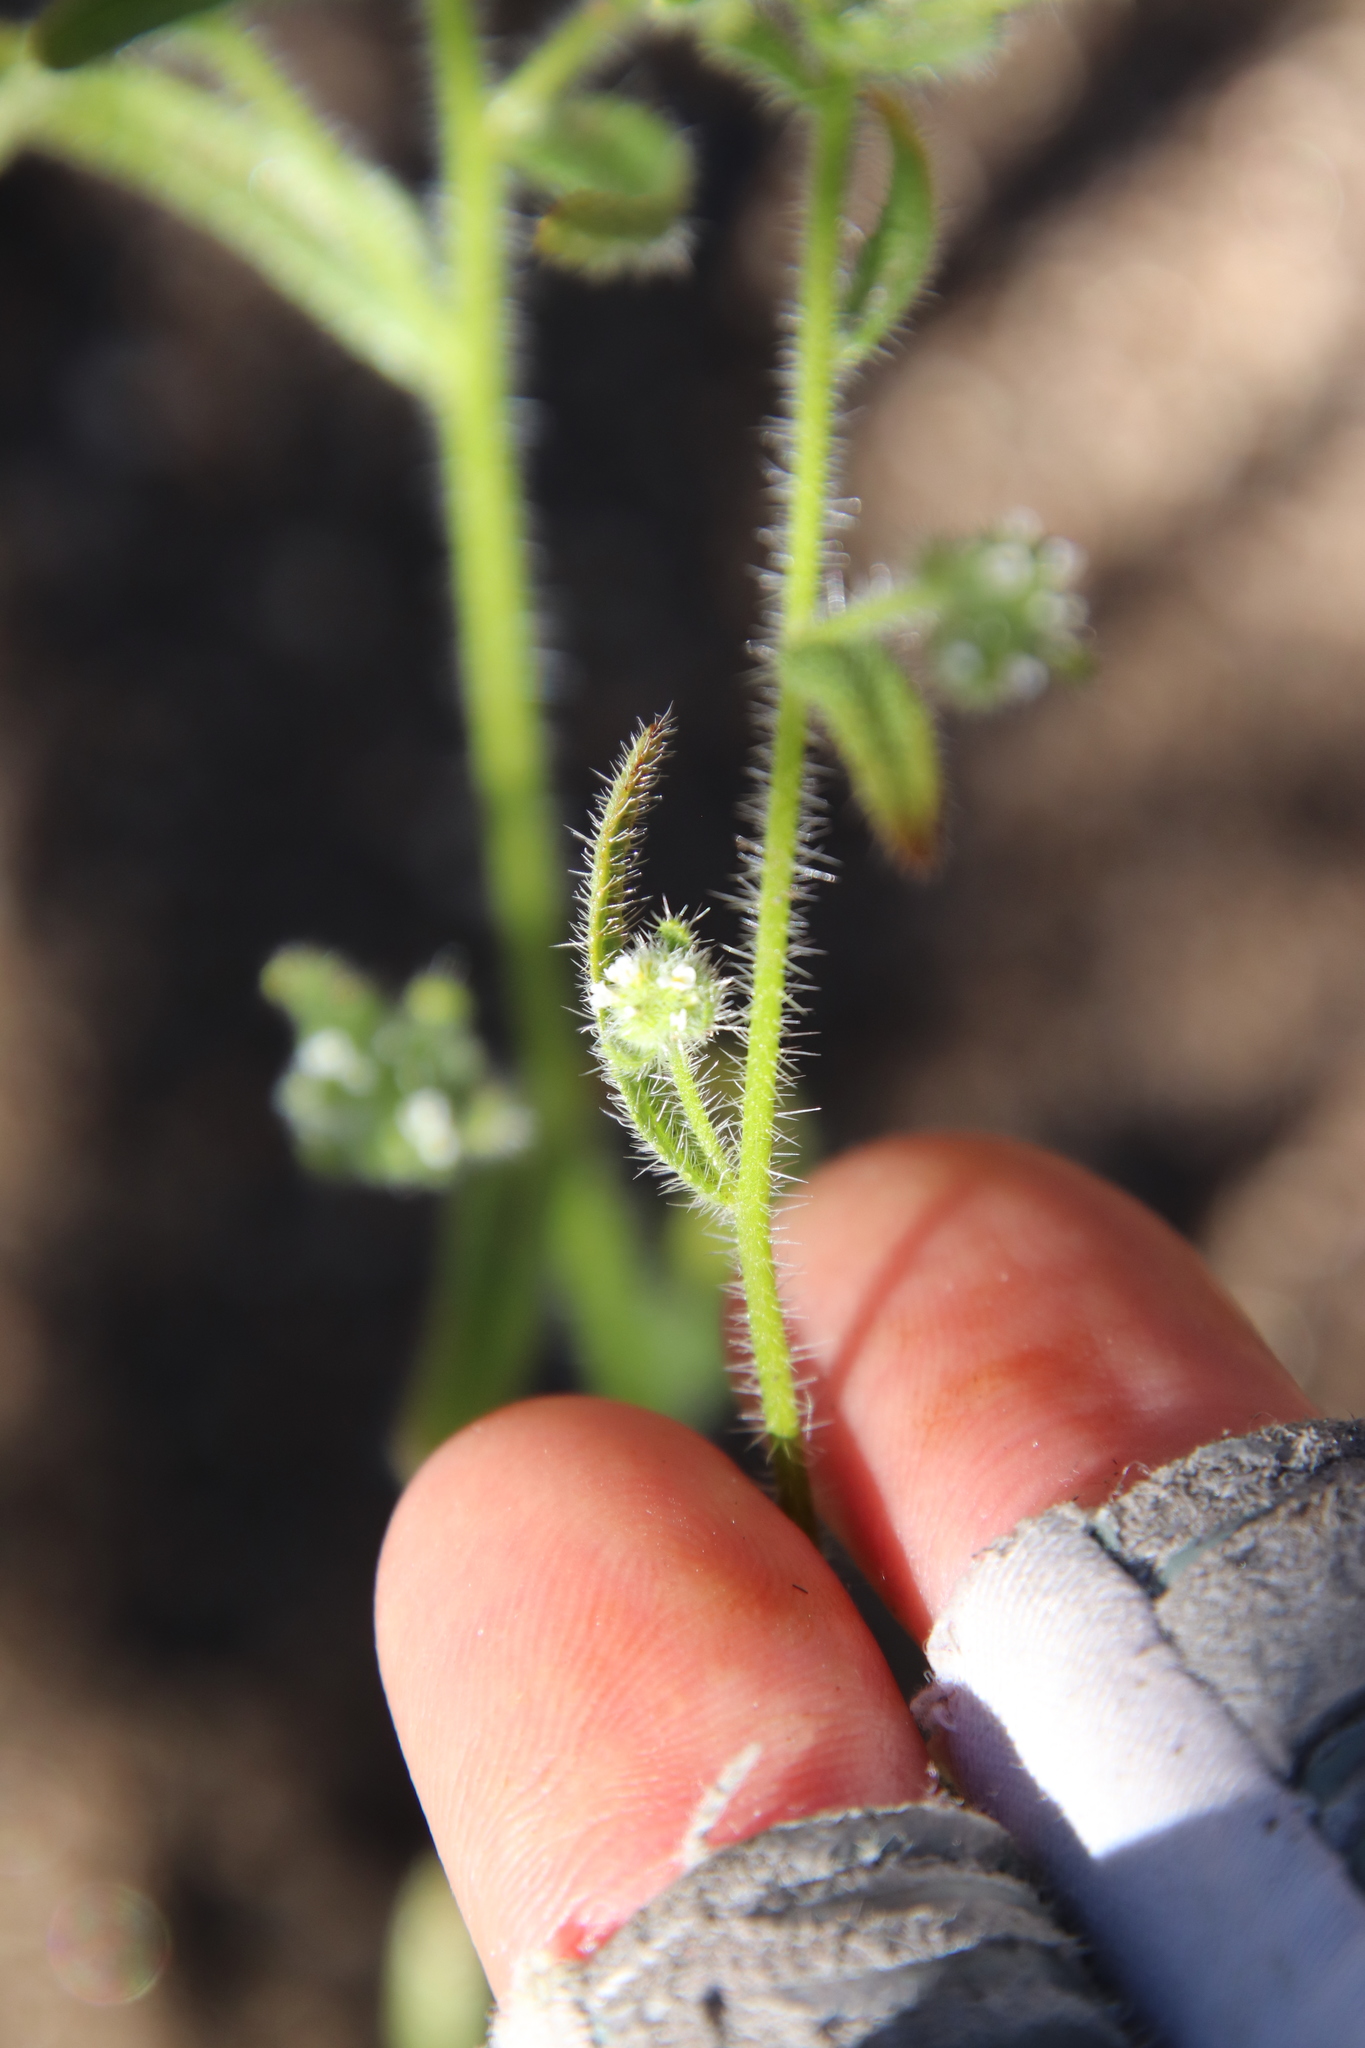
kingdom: Plantae
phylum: Tracheophyta
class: Magnoliopsida
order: Boraginales
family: Boraginaceae
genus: Cryptantha
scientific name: Cryptantha microstachys
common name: Tejon cryptantha
